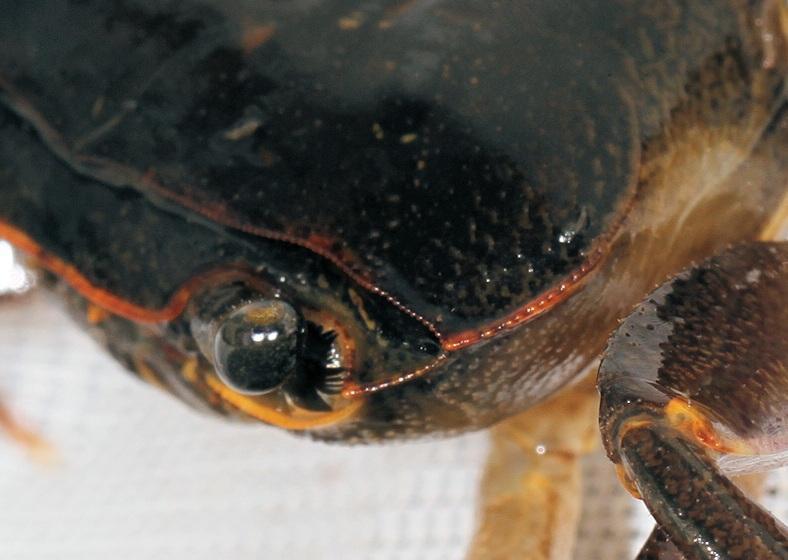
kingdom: Animalia
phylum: Arthropoda
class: Malacostraca
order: Decapoda
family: Potamonautidae
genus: Potamonautes
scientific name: Potamonautes sidneyi
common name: Natal river crab
